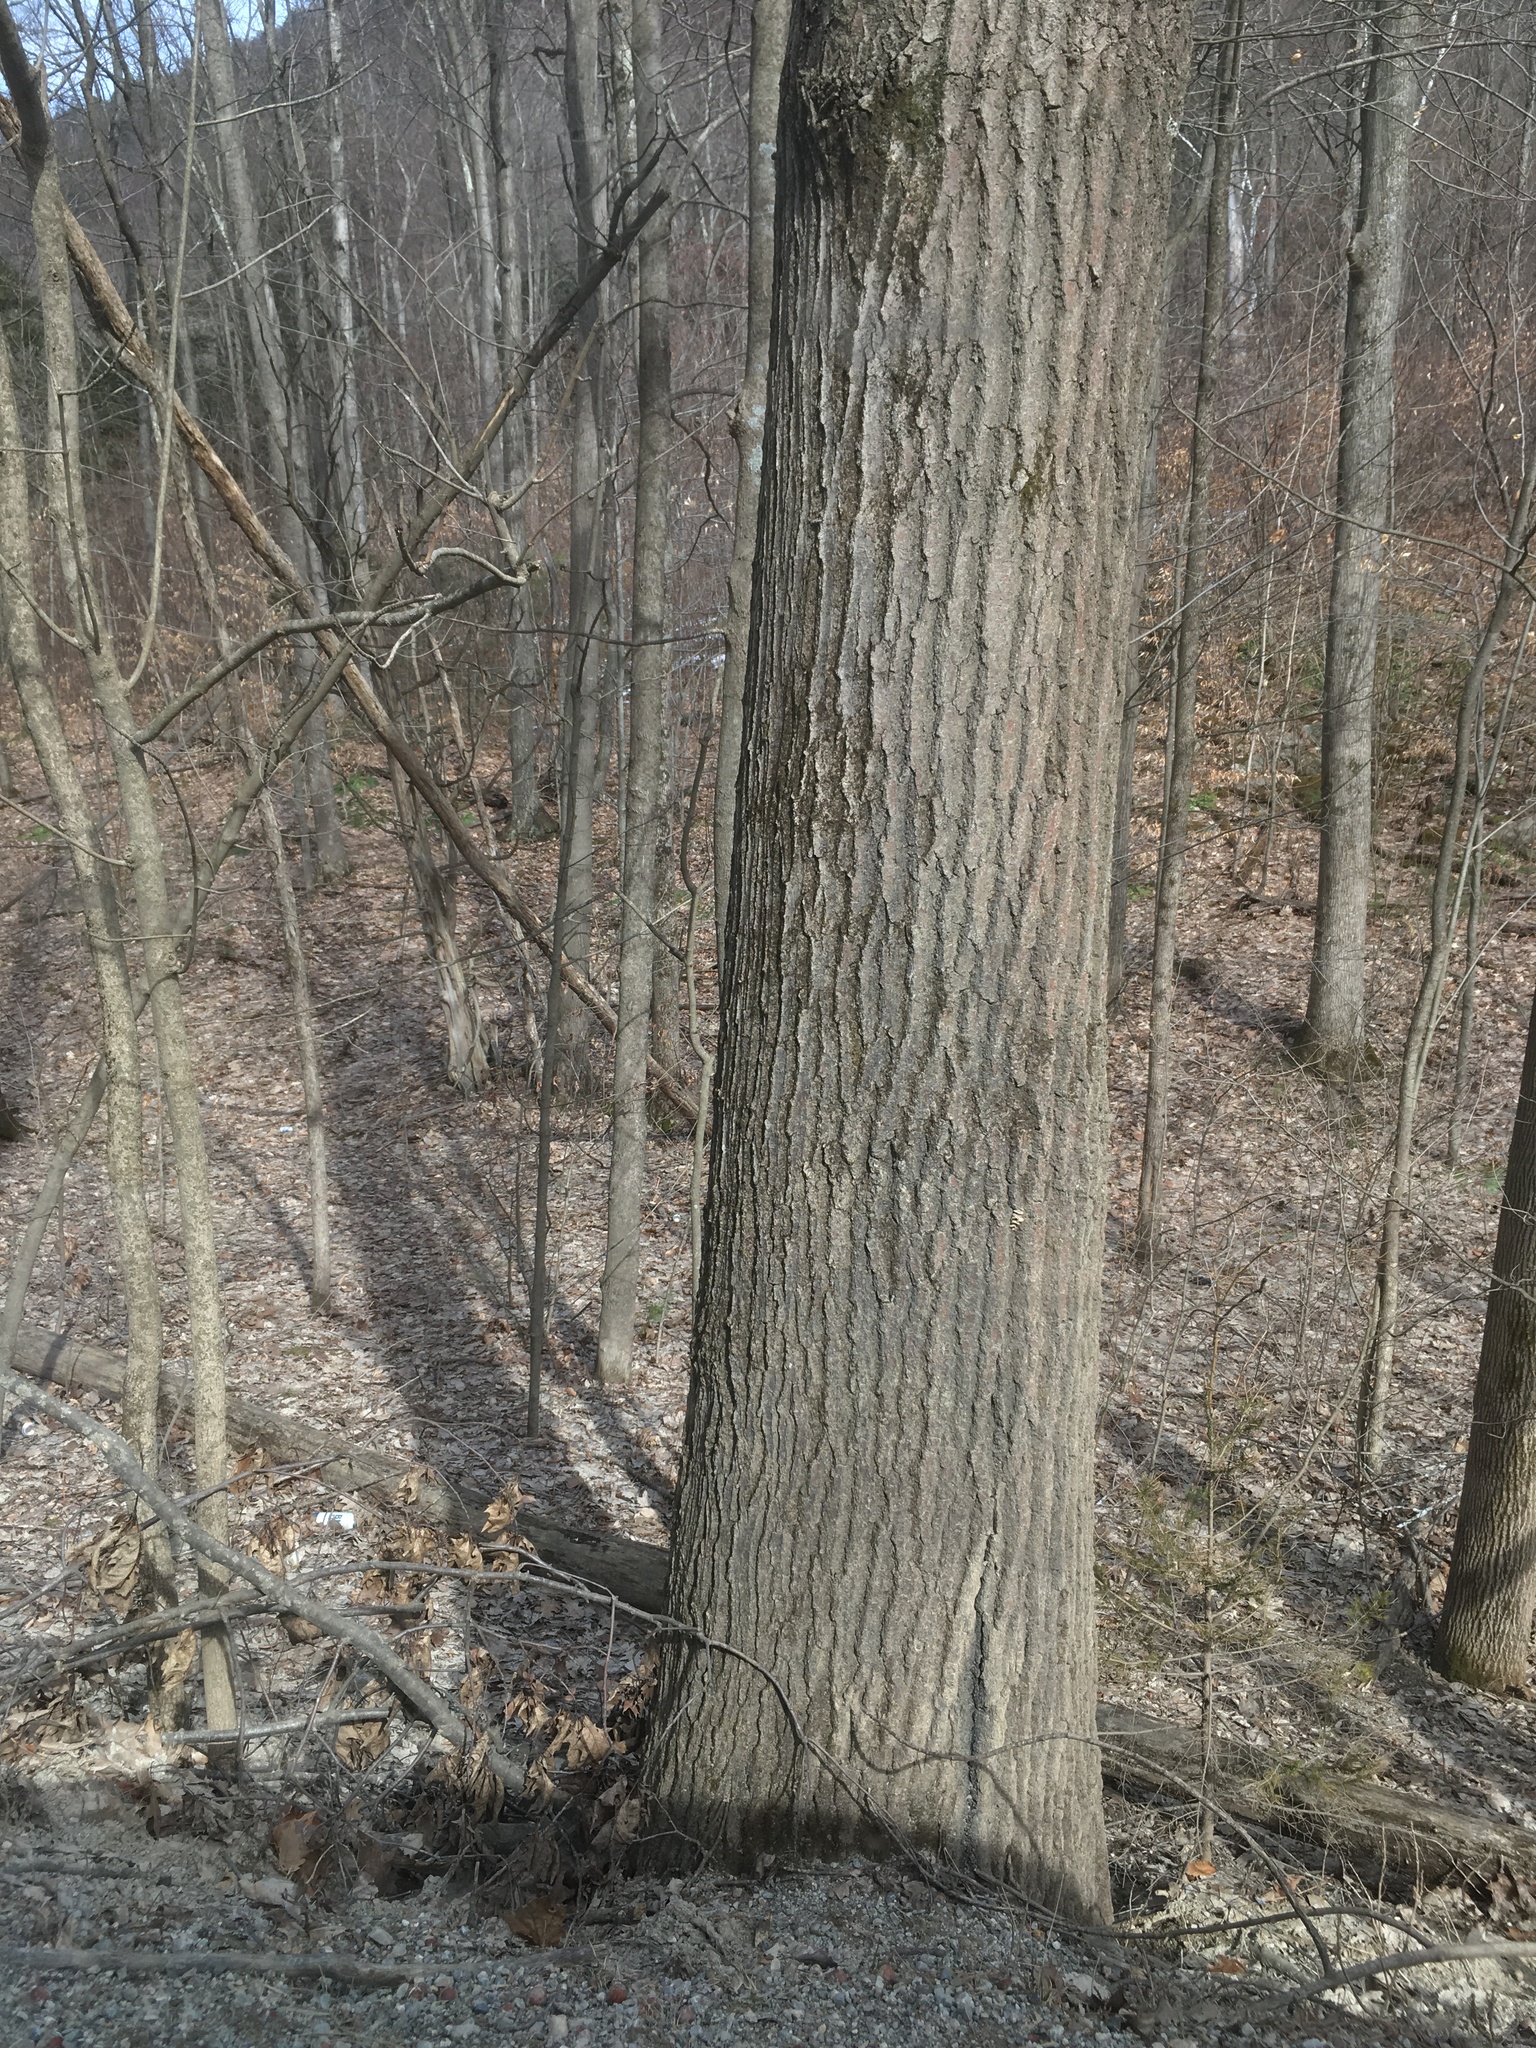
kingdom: Plantae
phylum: Tracheophyta
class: Magnoliopsida
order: Fagales
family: Fagaceae
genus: Quercus
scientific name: Quercus rubra
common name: Red oak
